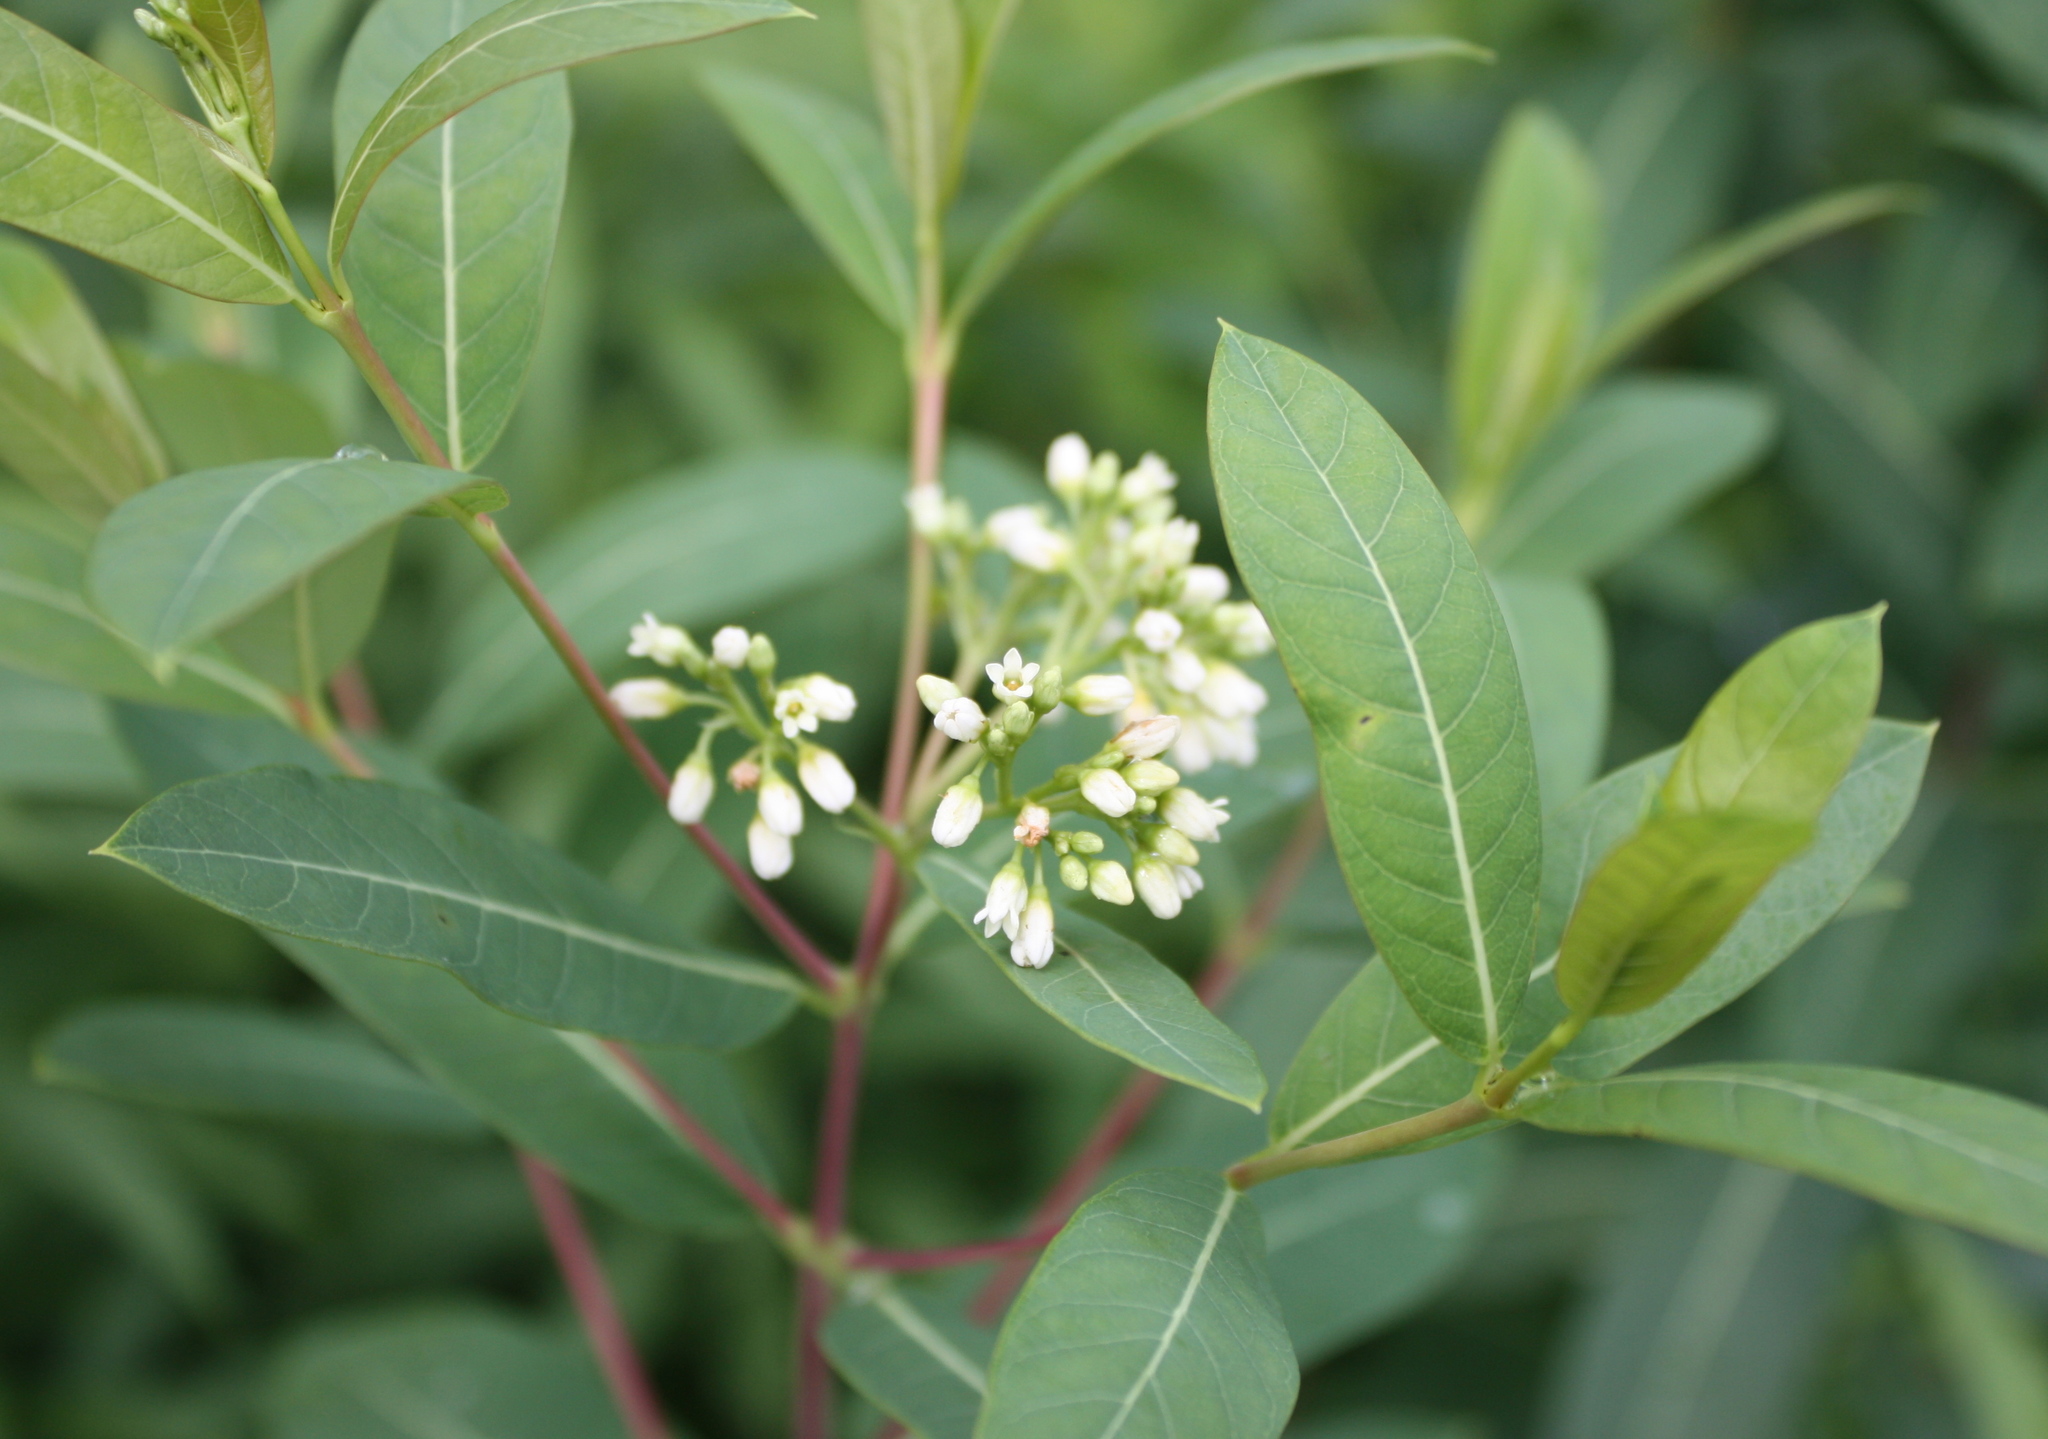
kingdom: Plantae
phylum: Tracheophyta
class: Magnoliopsida
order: Gentianales
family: Apocynaceae
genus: Apocynum
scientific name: Apocynum cannabinum
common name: Hemp dogbane
